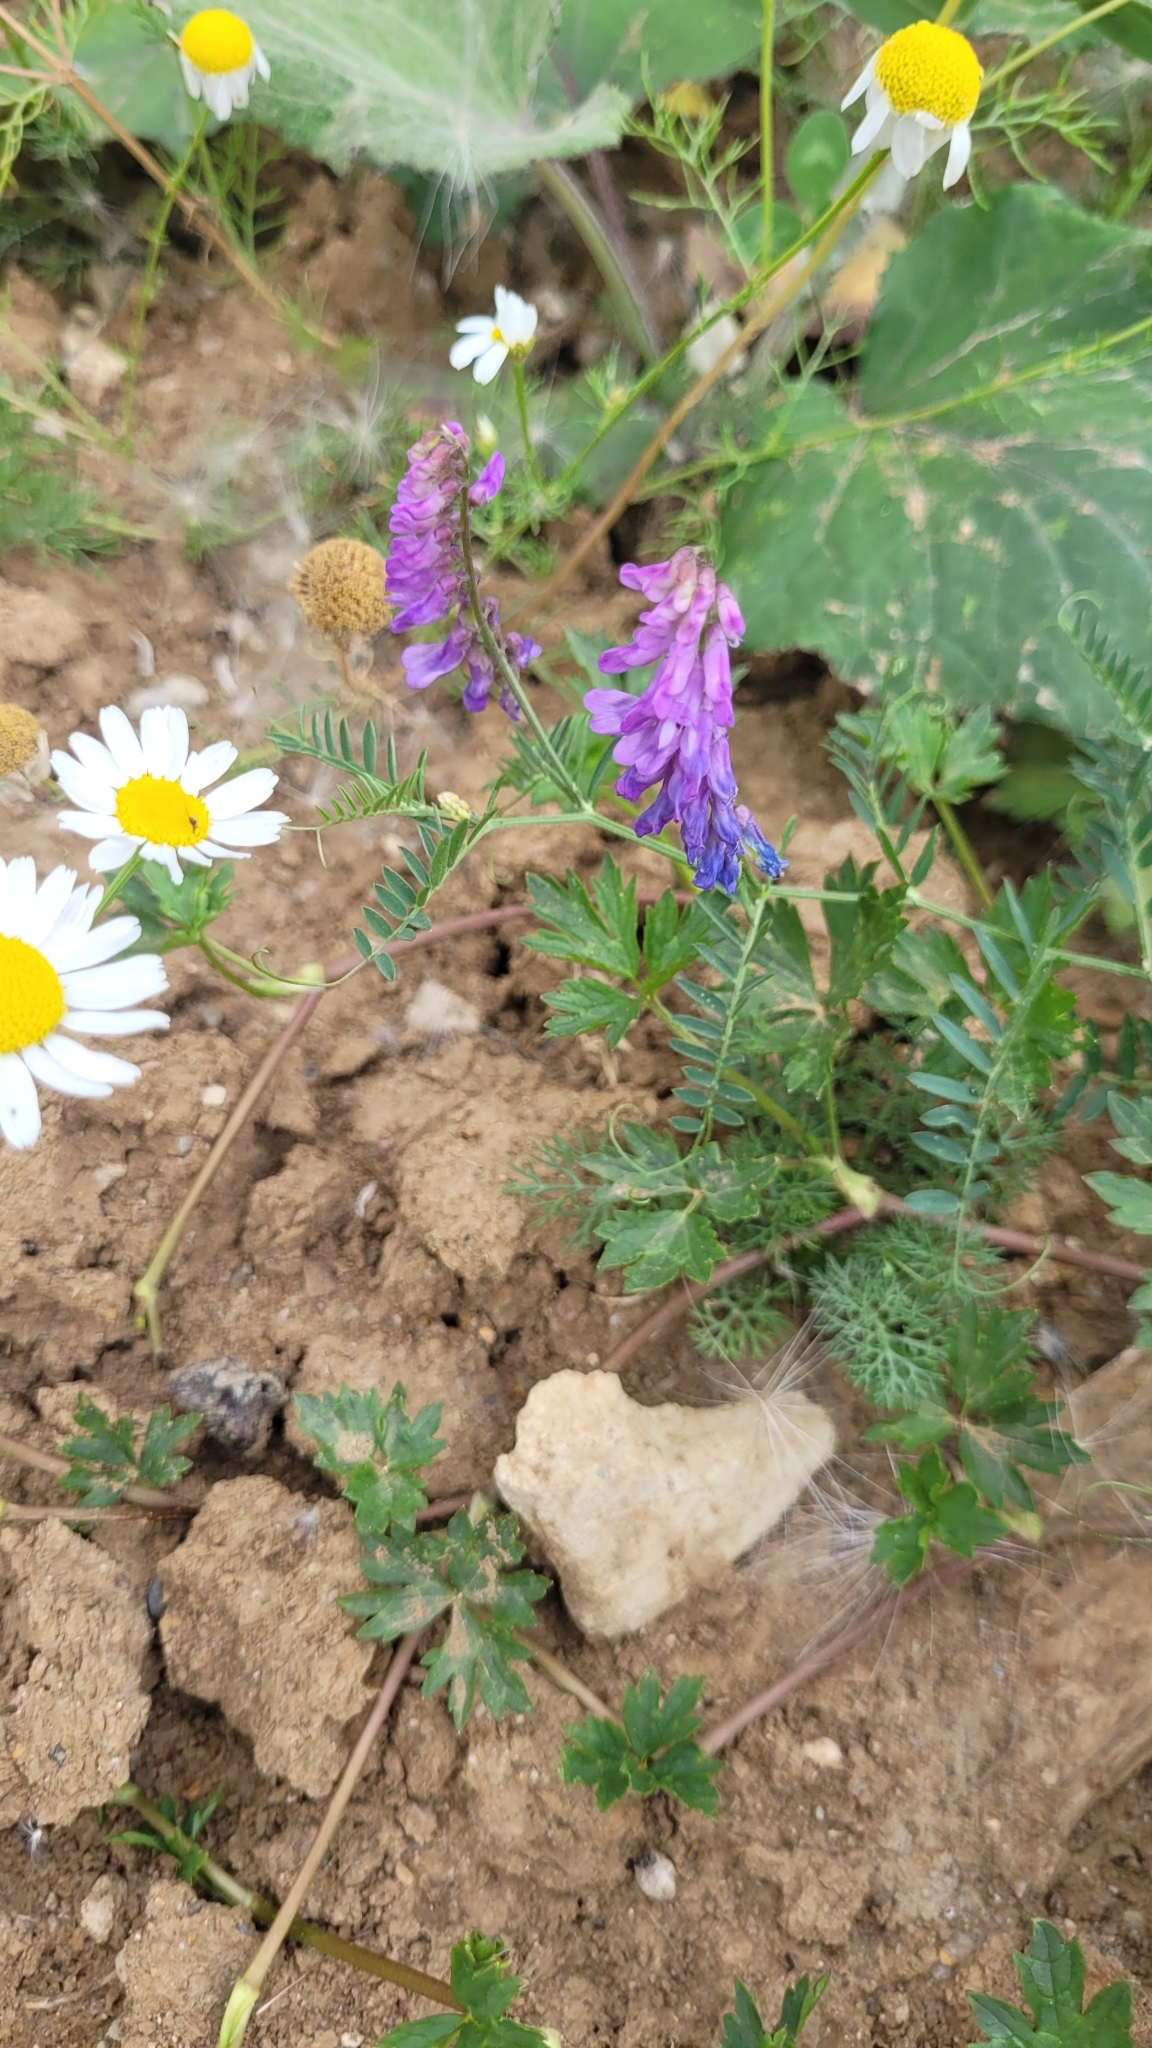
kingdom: Plantae
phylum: Tracheophyta
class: Magnoliopsida
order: Fabales
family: Fabaceae
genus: Vicia
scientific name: Vicia cracca
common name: Bird vetch
